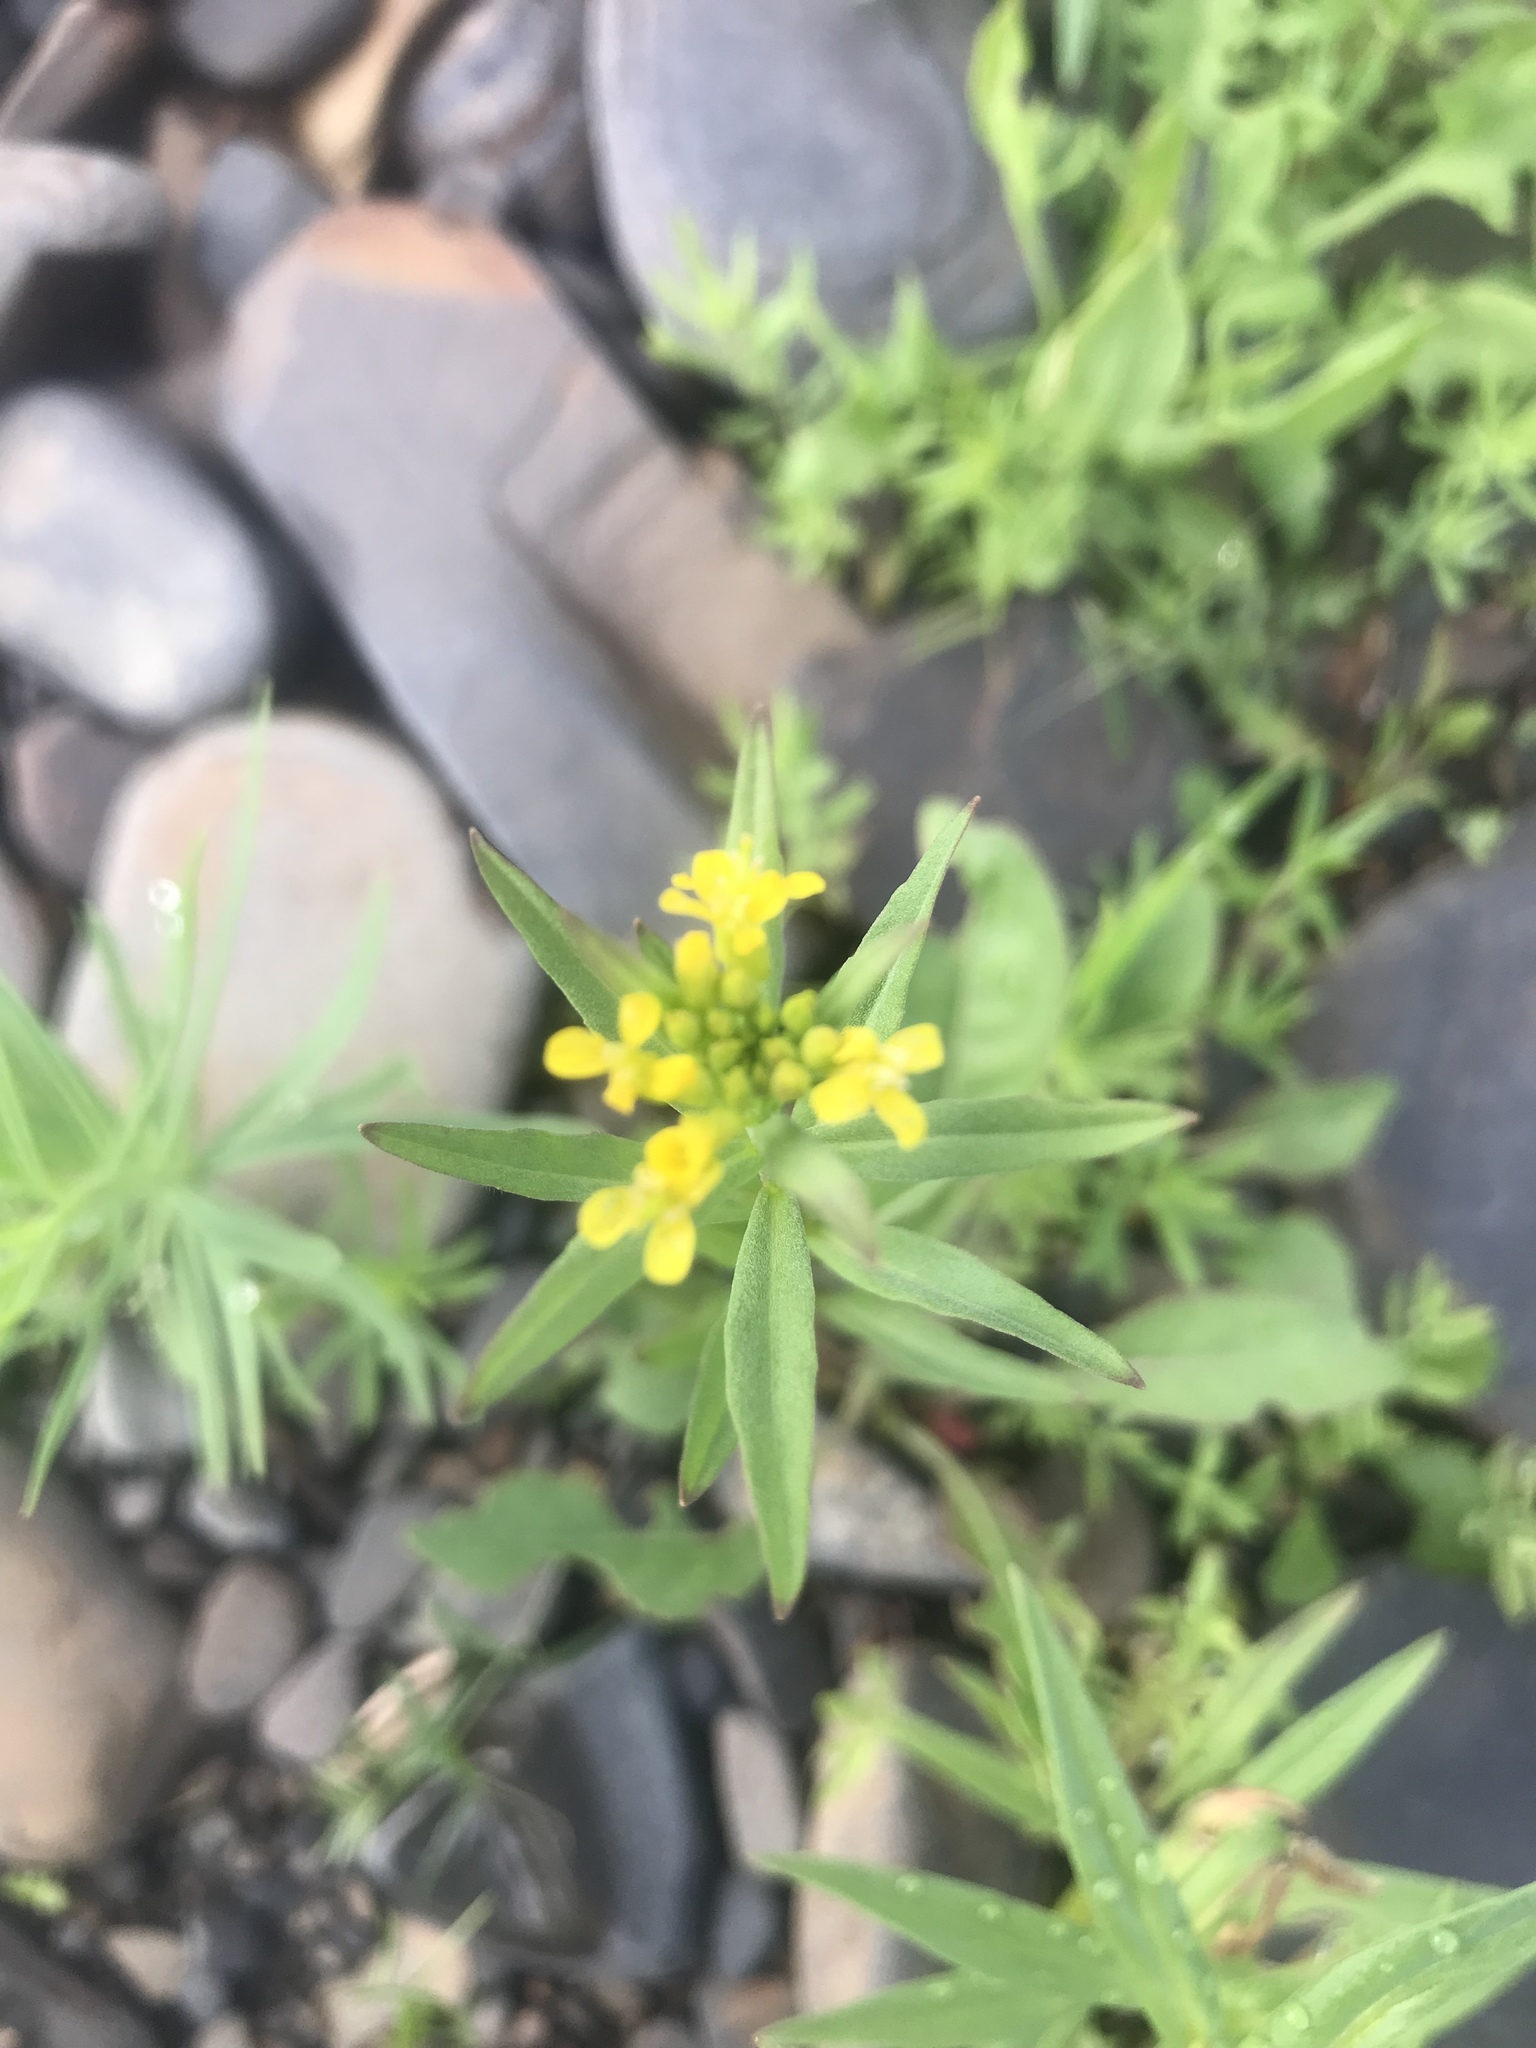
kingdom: Plantae
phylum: Tracheophyta
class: Magnoliopsida
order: Brassicales
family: Brassicaceae
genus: Erysimum
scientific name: Erysimum cheiranthoides
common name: Treacle mustard
